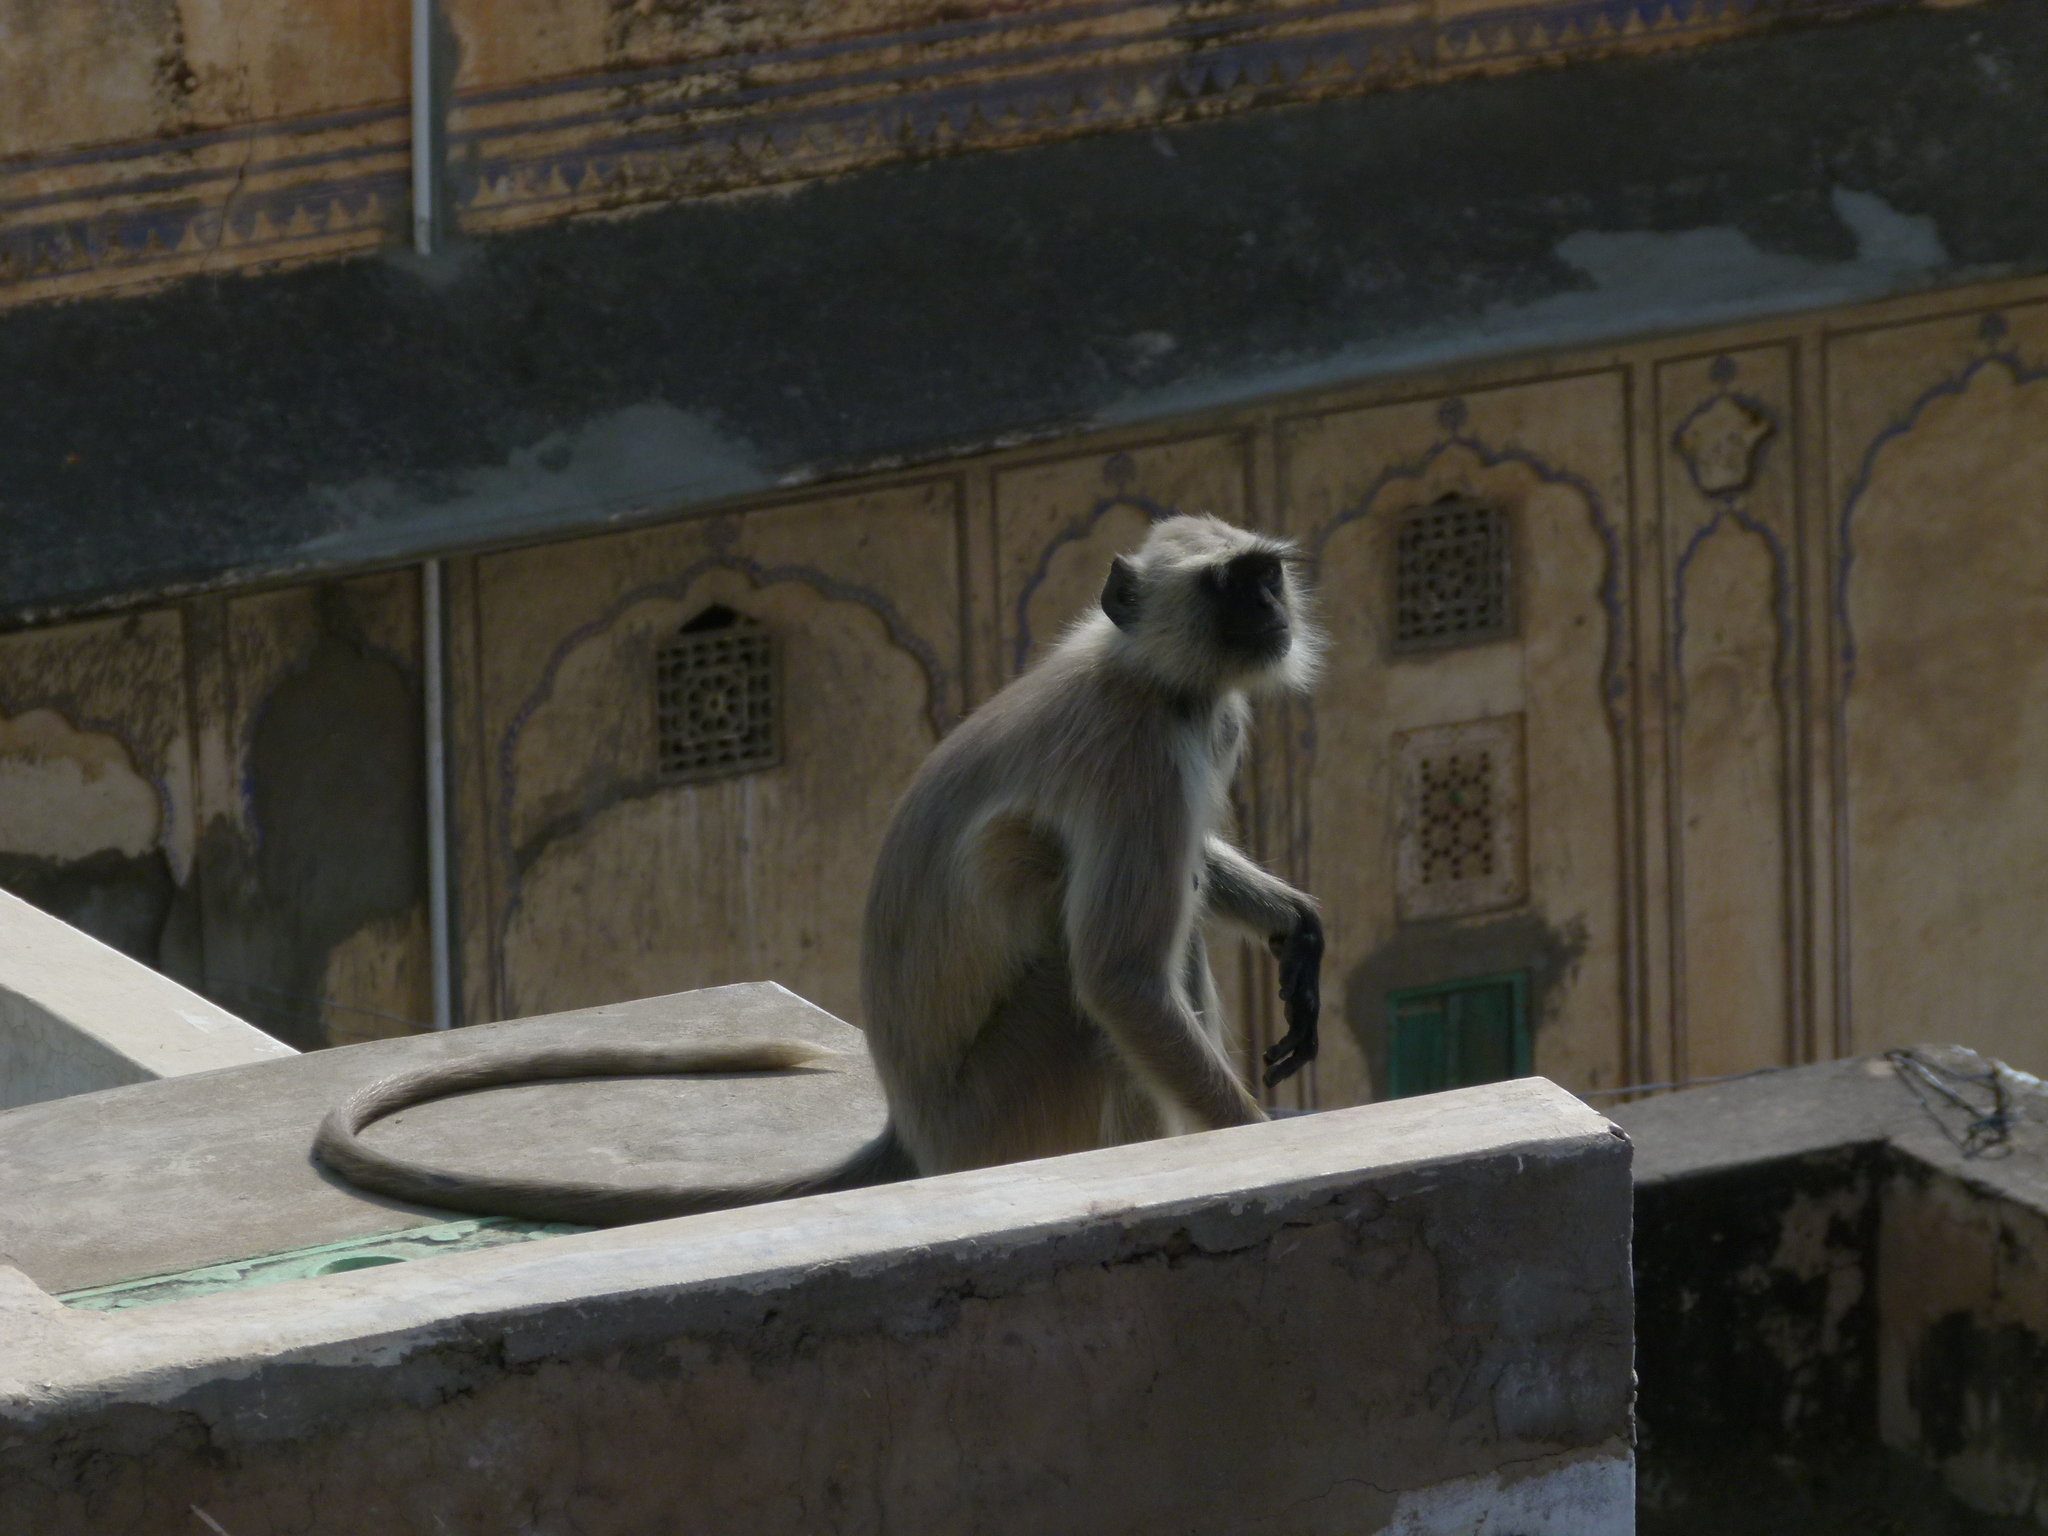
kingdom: Animalia
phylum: Chordata
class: Mammalia
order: Primates
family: Cercopithecidae
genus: Semnopithecus
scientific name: Semnopithecus entellus
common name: Northern plains gray langur
